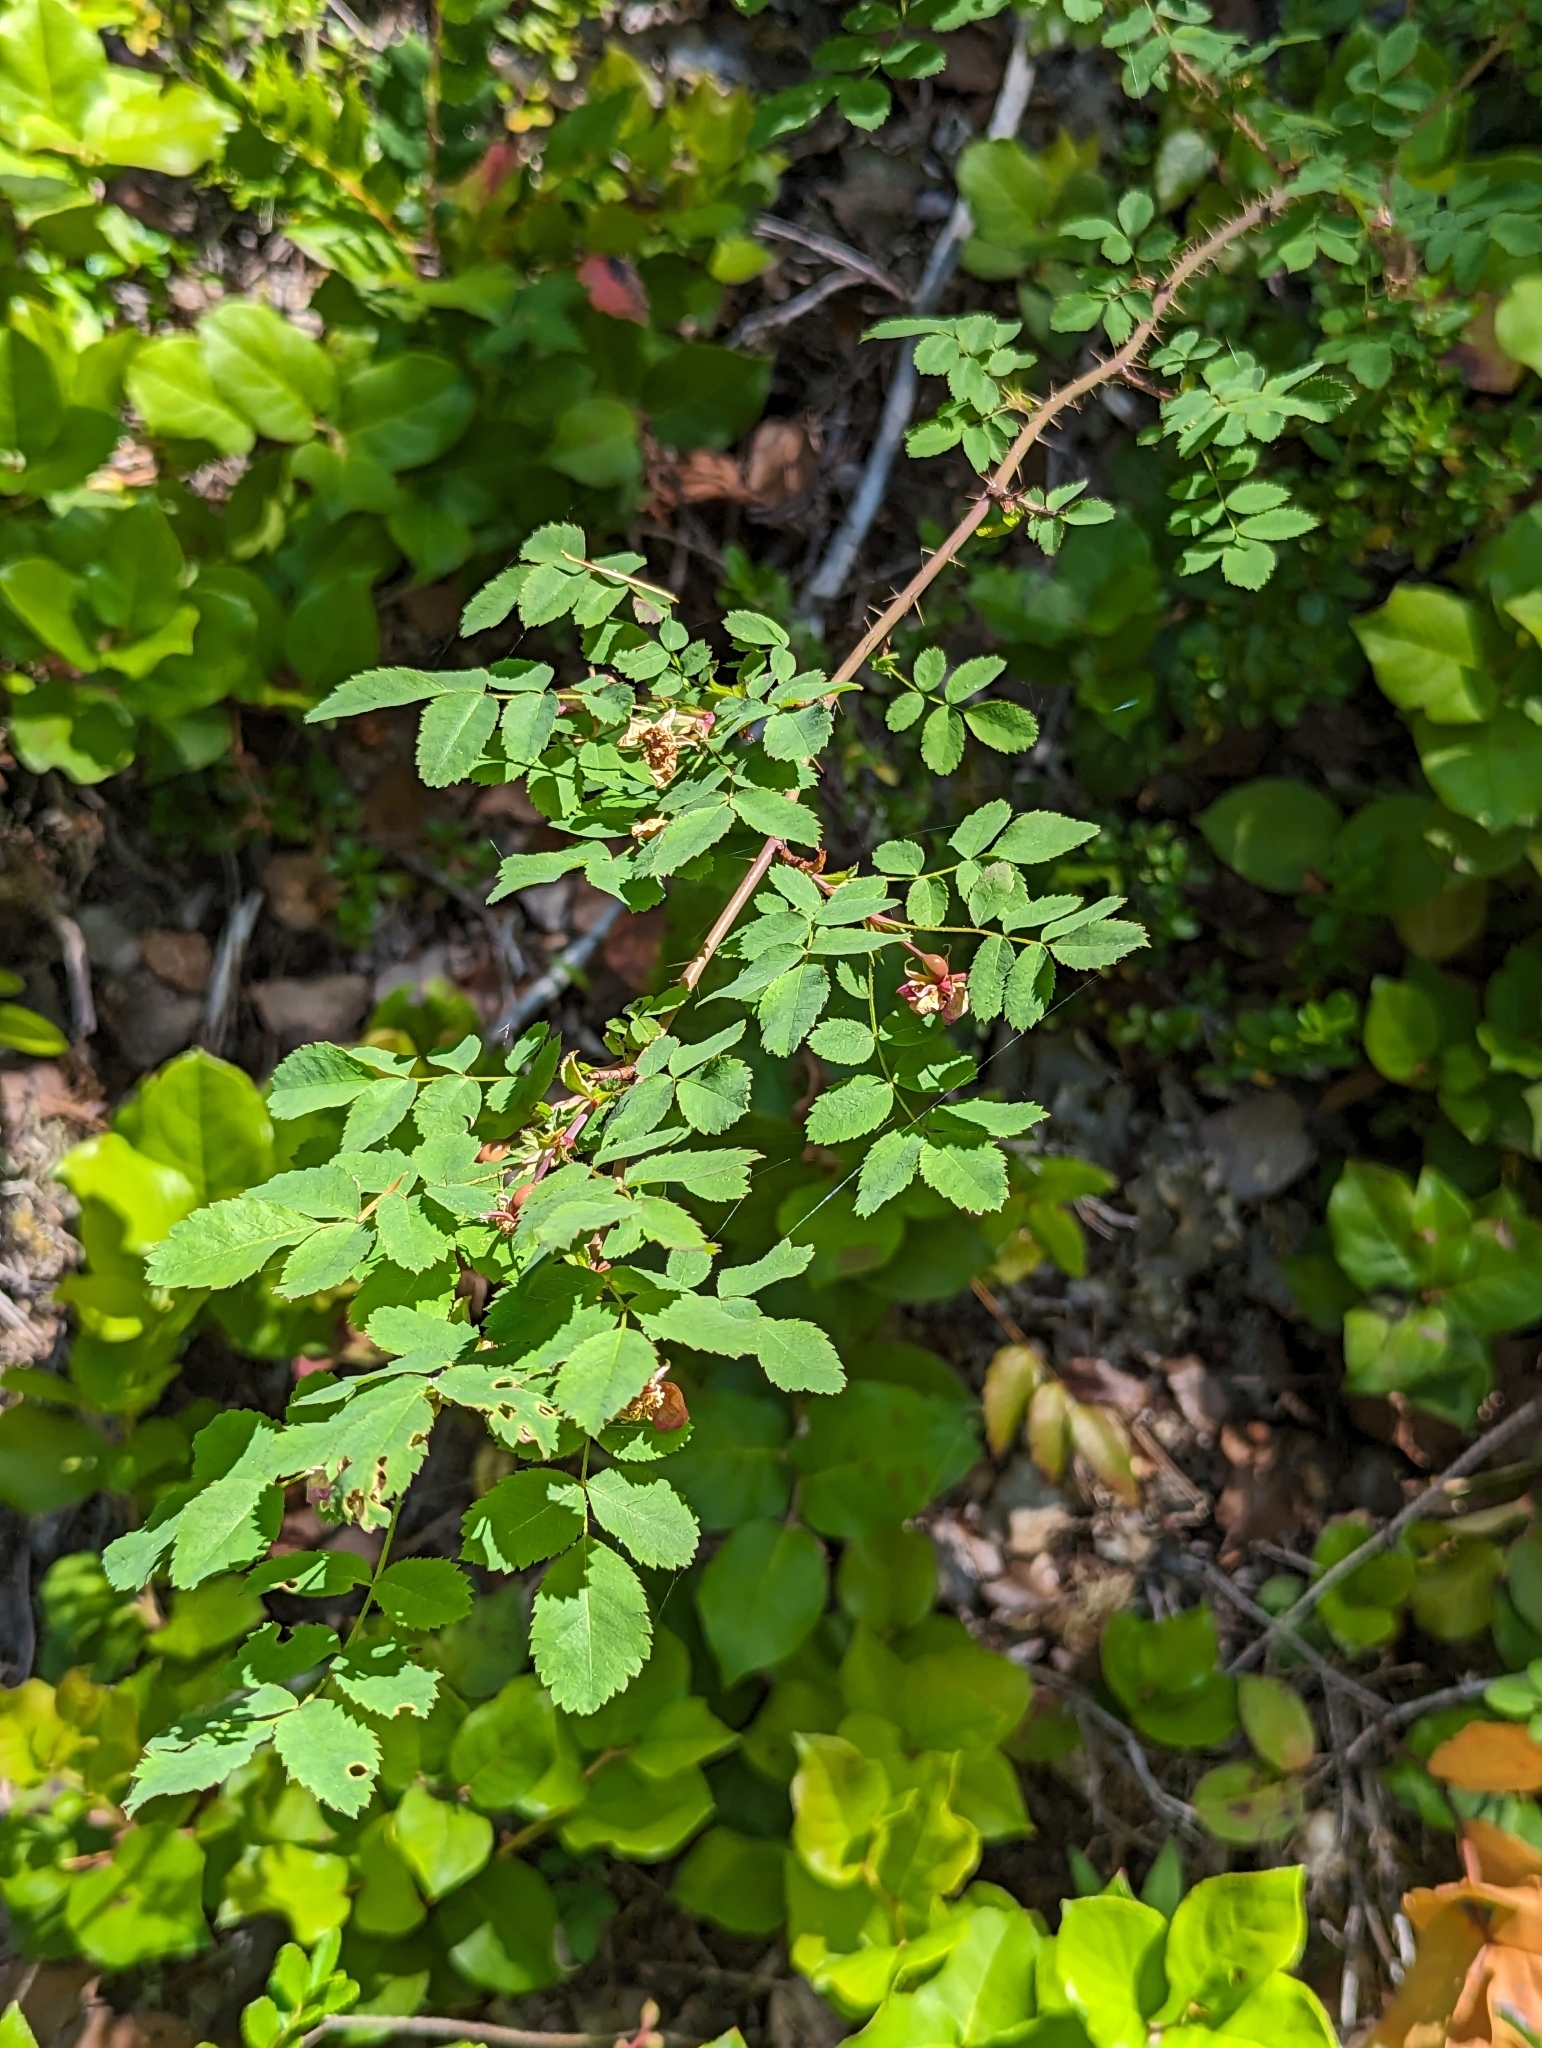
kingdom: Plantae
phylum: Tracheophyta
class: Magnoliopsida
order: Rosales
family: Rosaceae
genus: Rosa
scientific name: Rosa gymnocarpa
